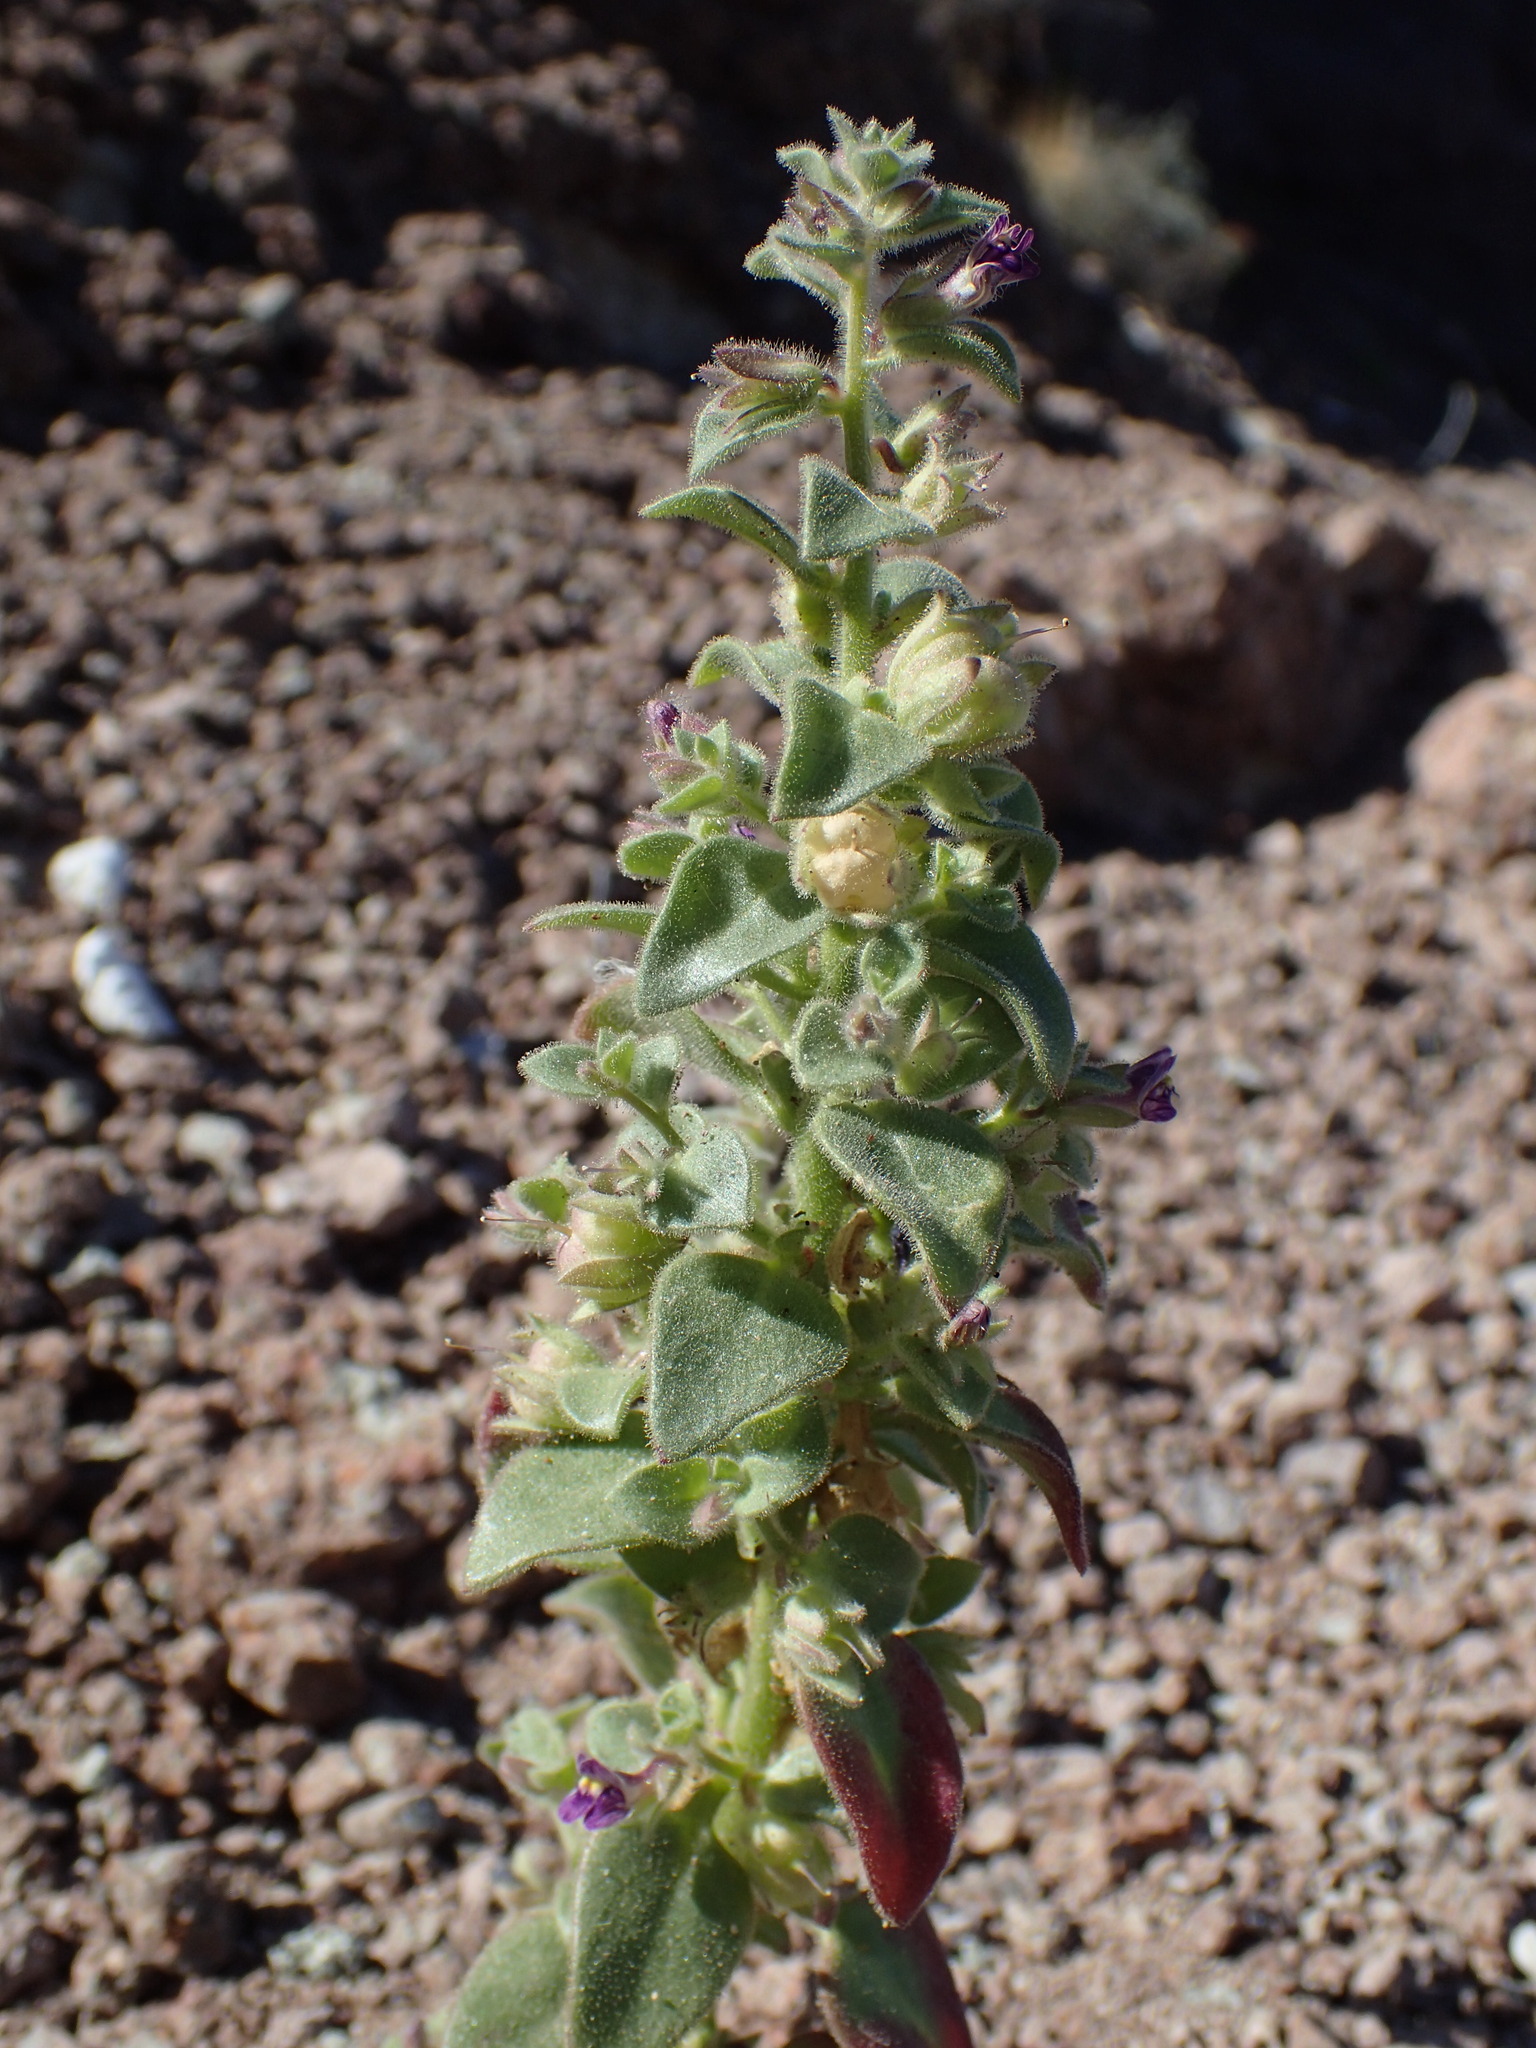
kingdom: Plantae
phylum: Tracheophyta
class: Magnoliopsida
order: Lamiales
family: Plantaginaceae
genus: Pseudorontium
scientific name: Pseudorontium cyathiferum
